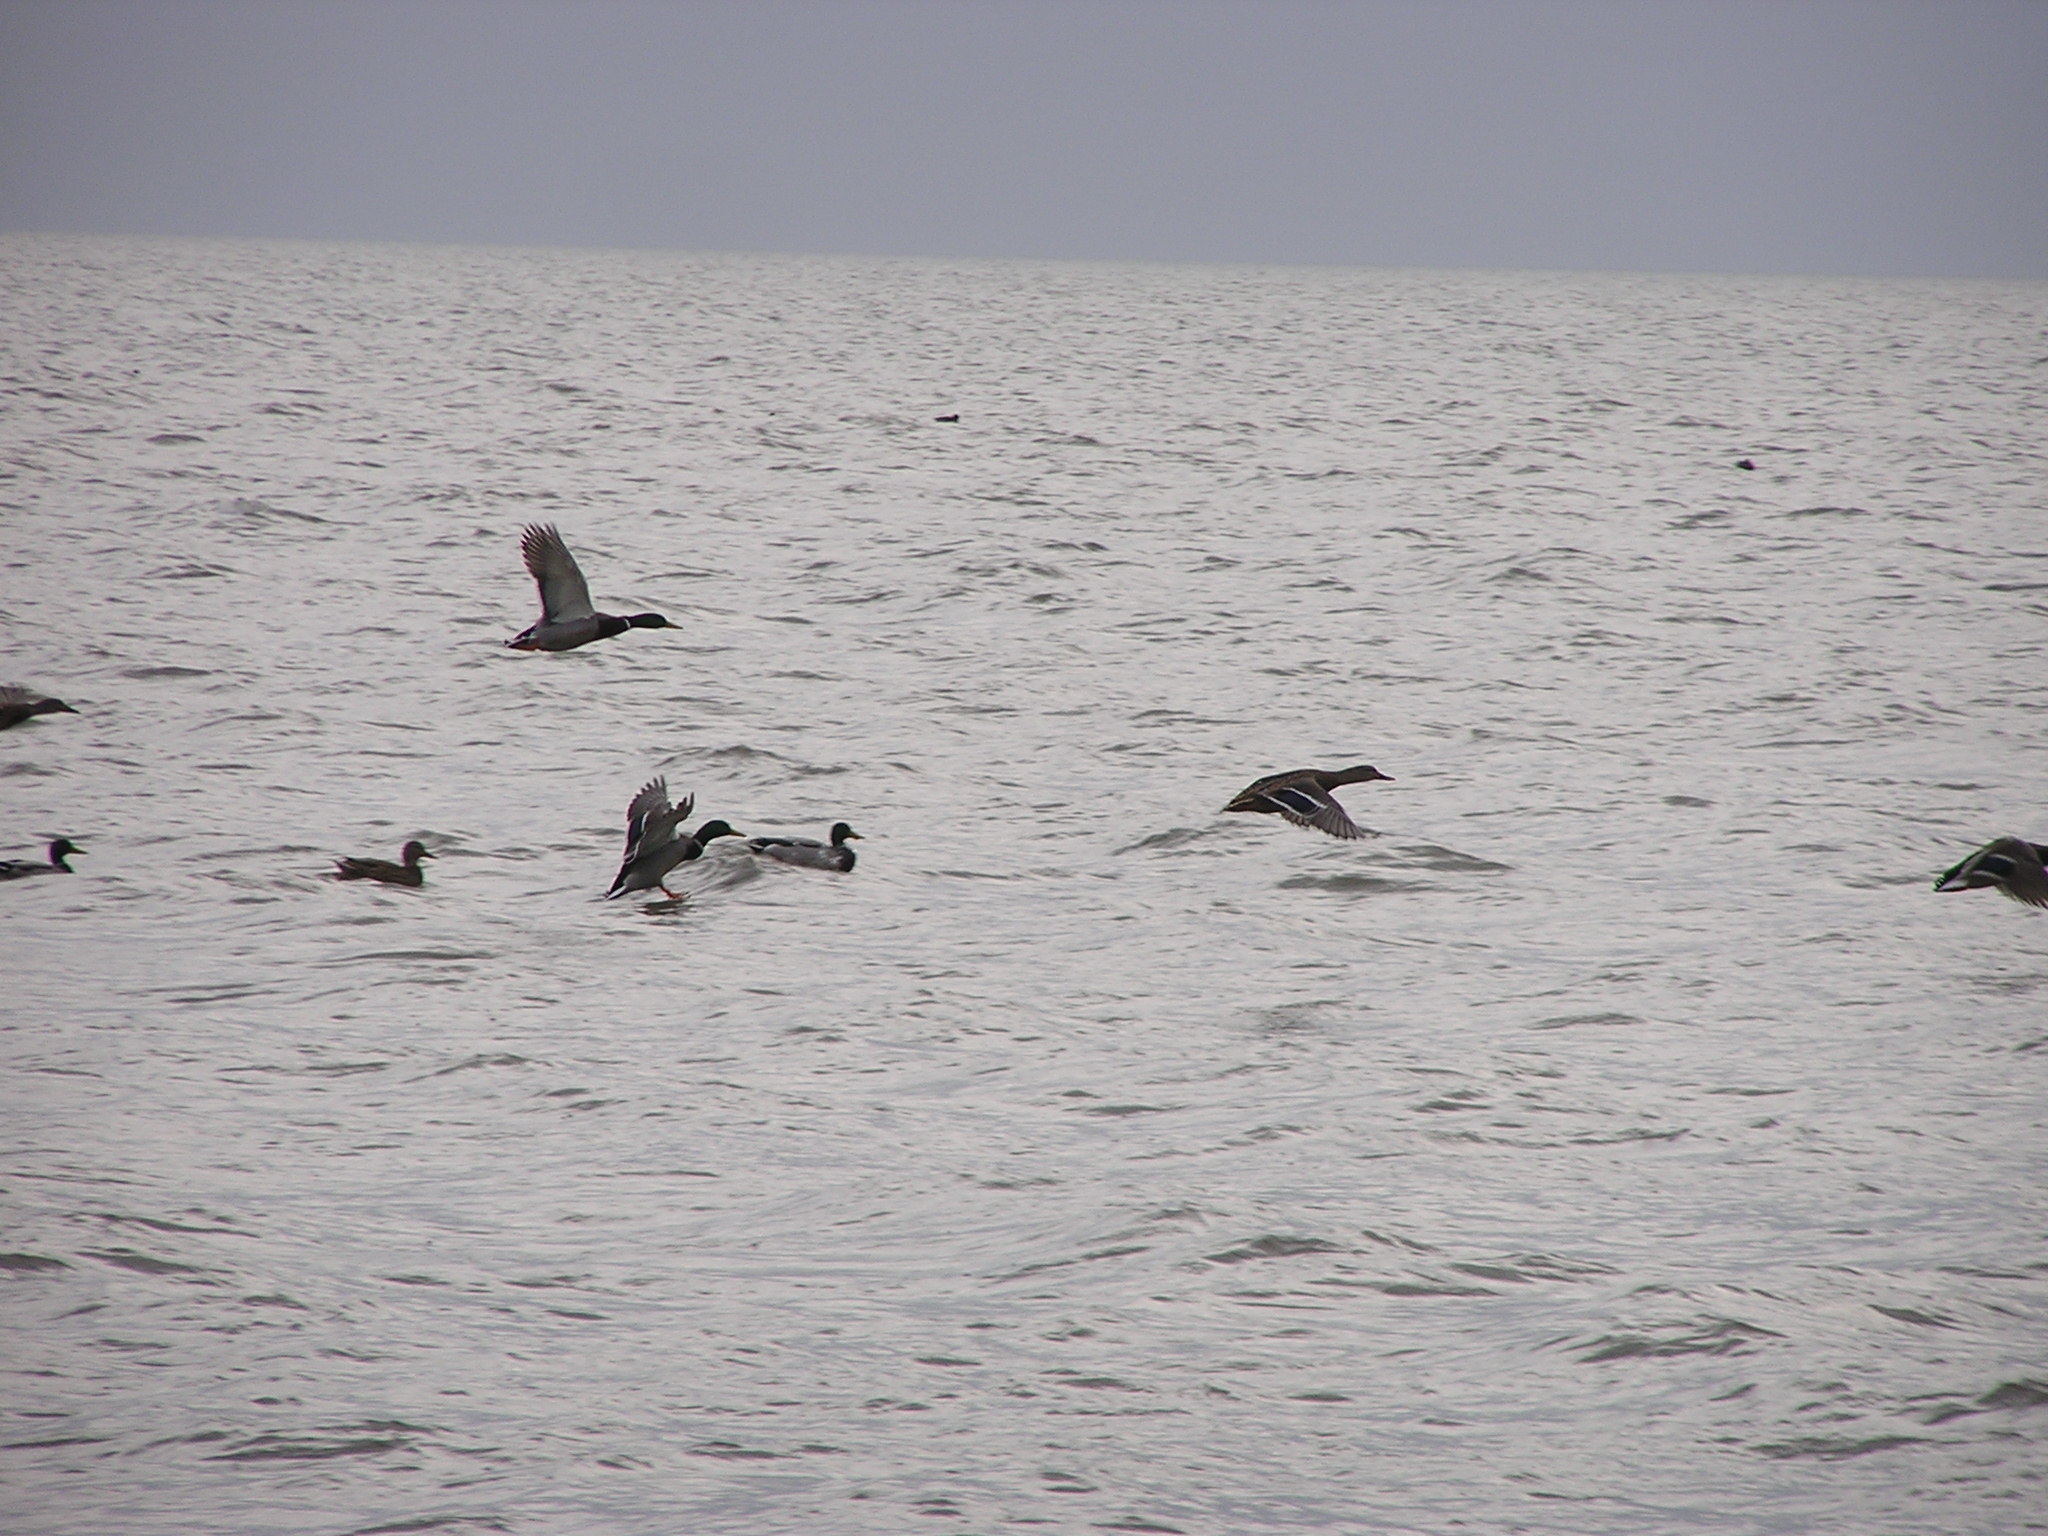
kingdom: Animalia
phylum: Chordata
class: Aves
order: Anseriformes
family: Anatidae
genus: Anas
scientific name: Anas platyrhynchos
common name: Mallard
